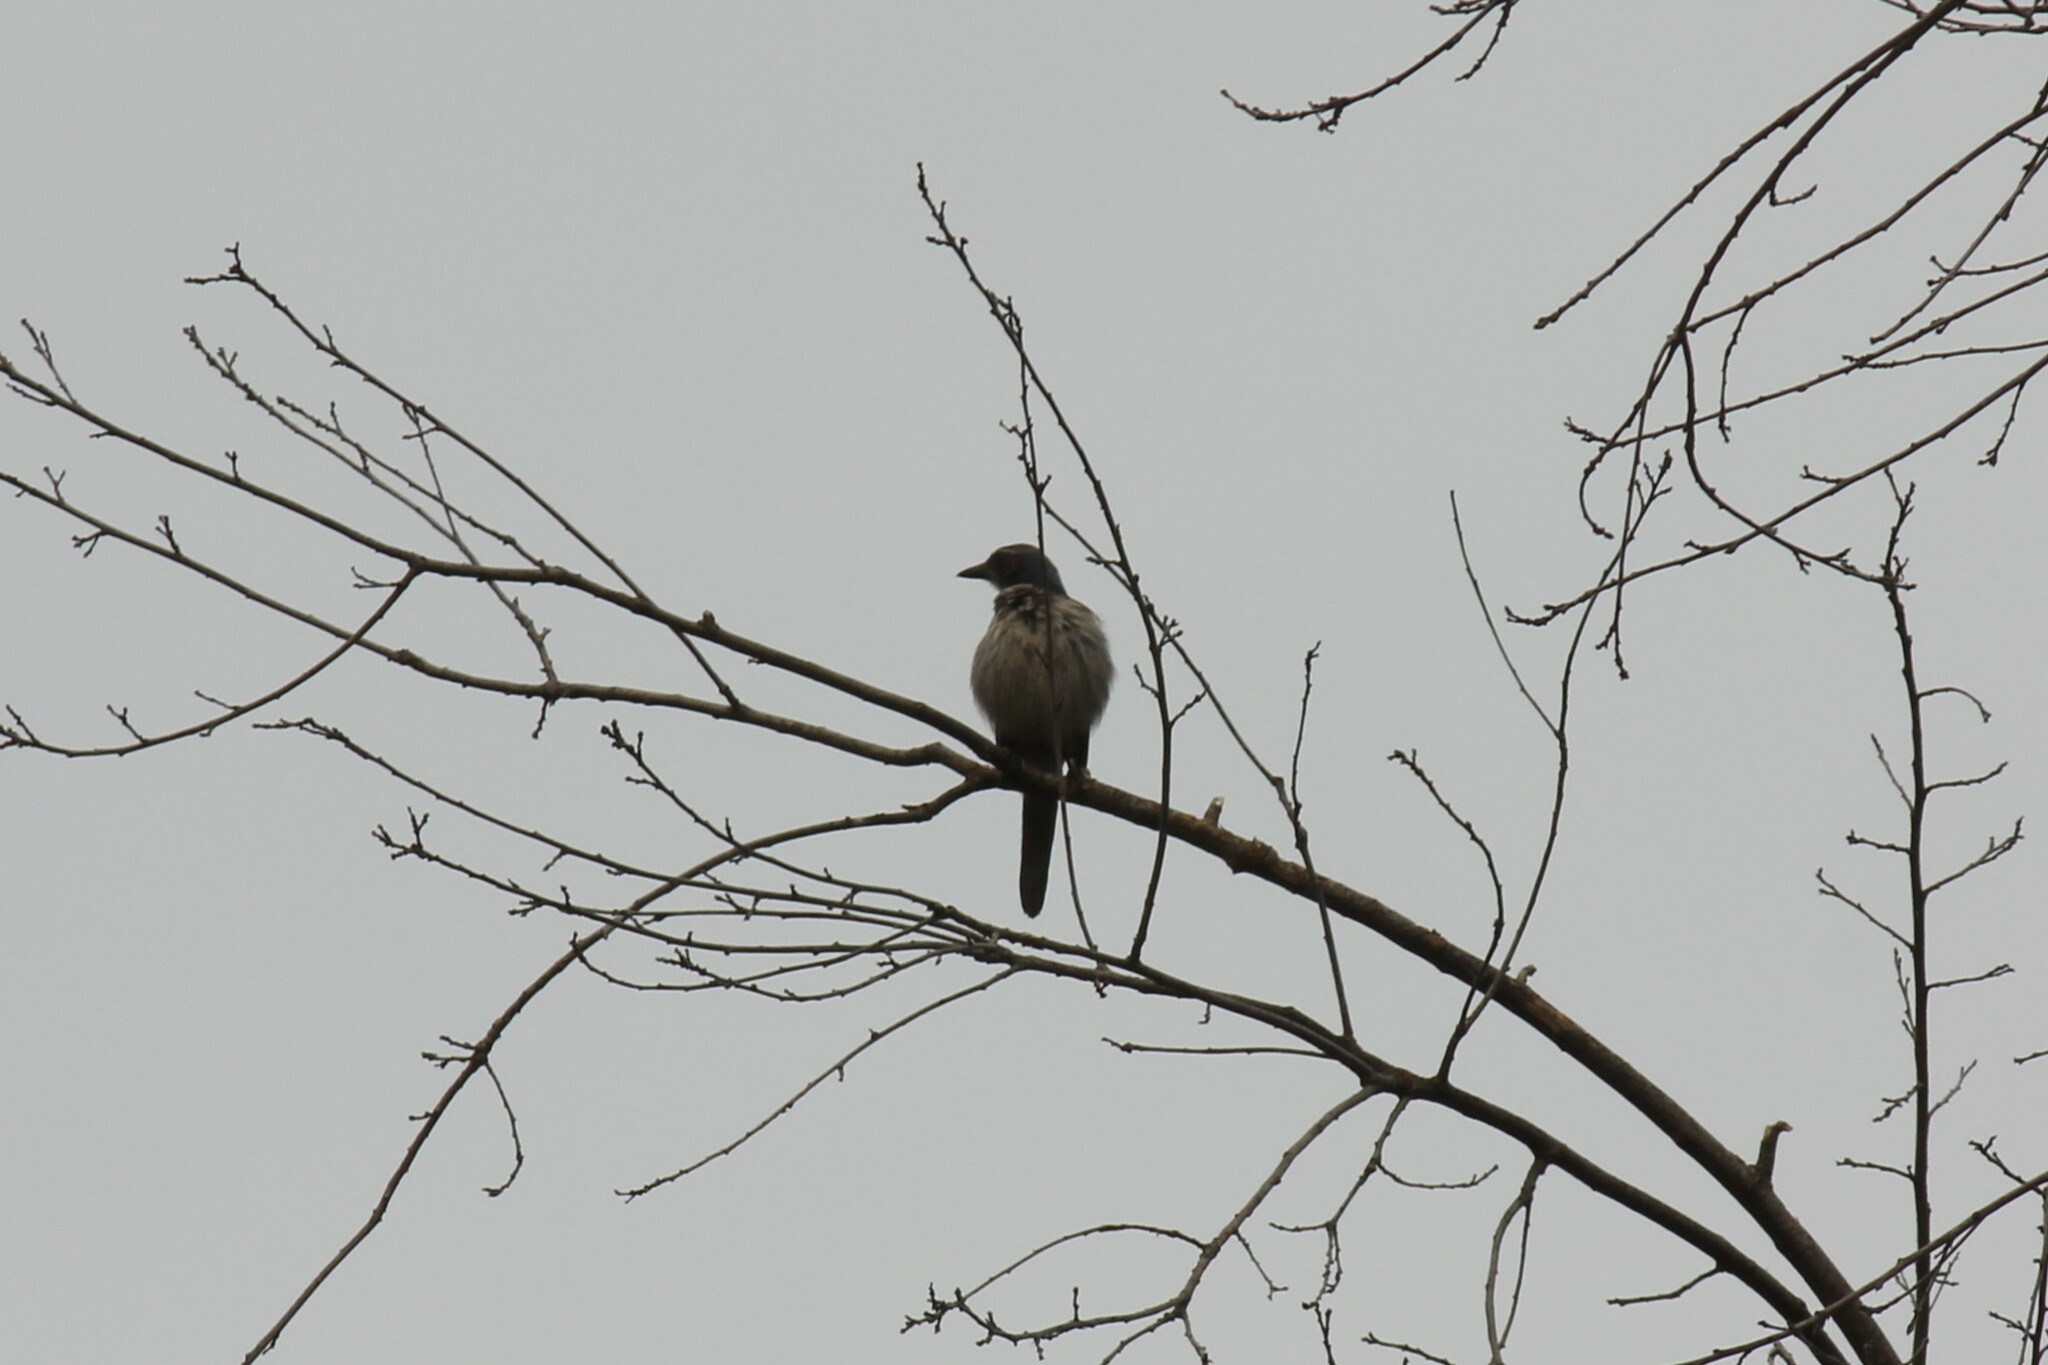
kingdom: Animalia
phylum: Chordata
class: Aves
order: Passeriformes
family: Corvidae
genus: Aphelocoma
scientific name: Aphelocoma californica
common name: California scrub-jay
